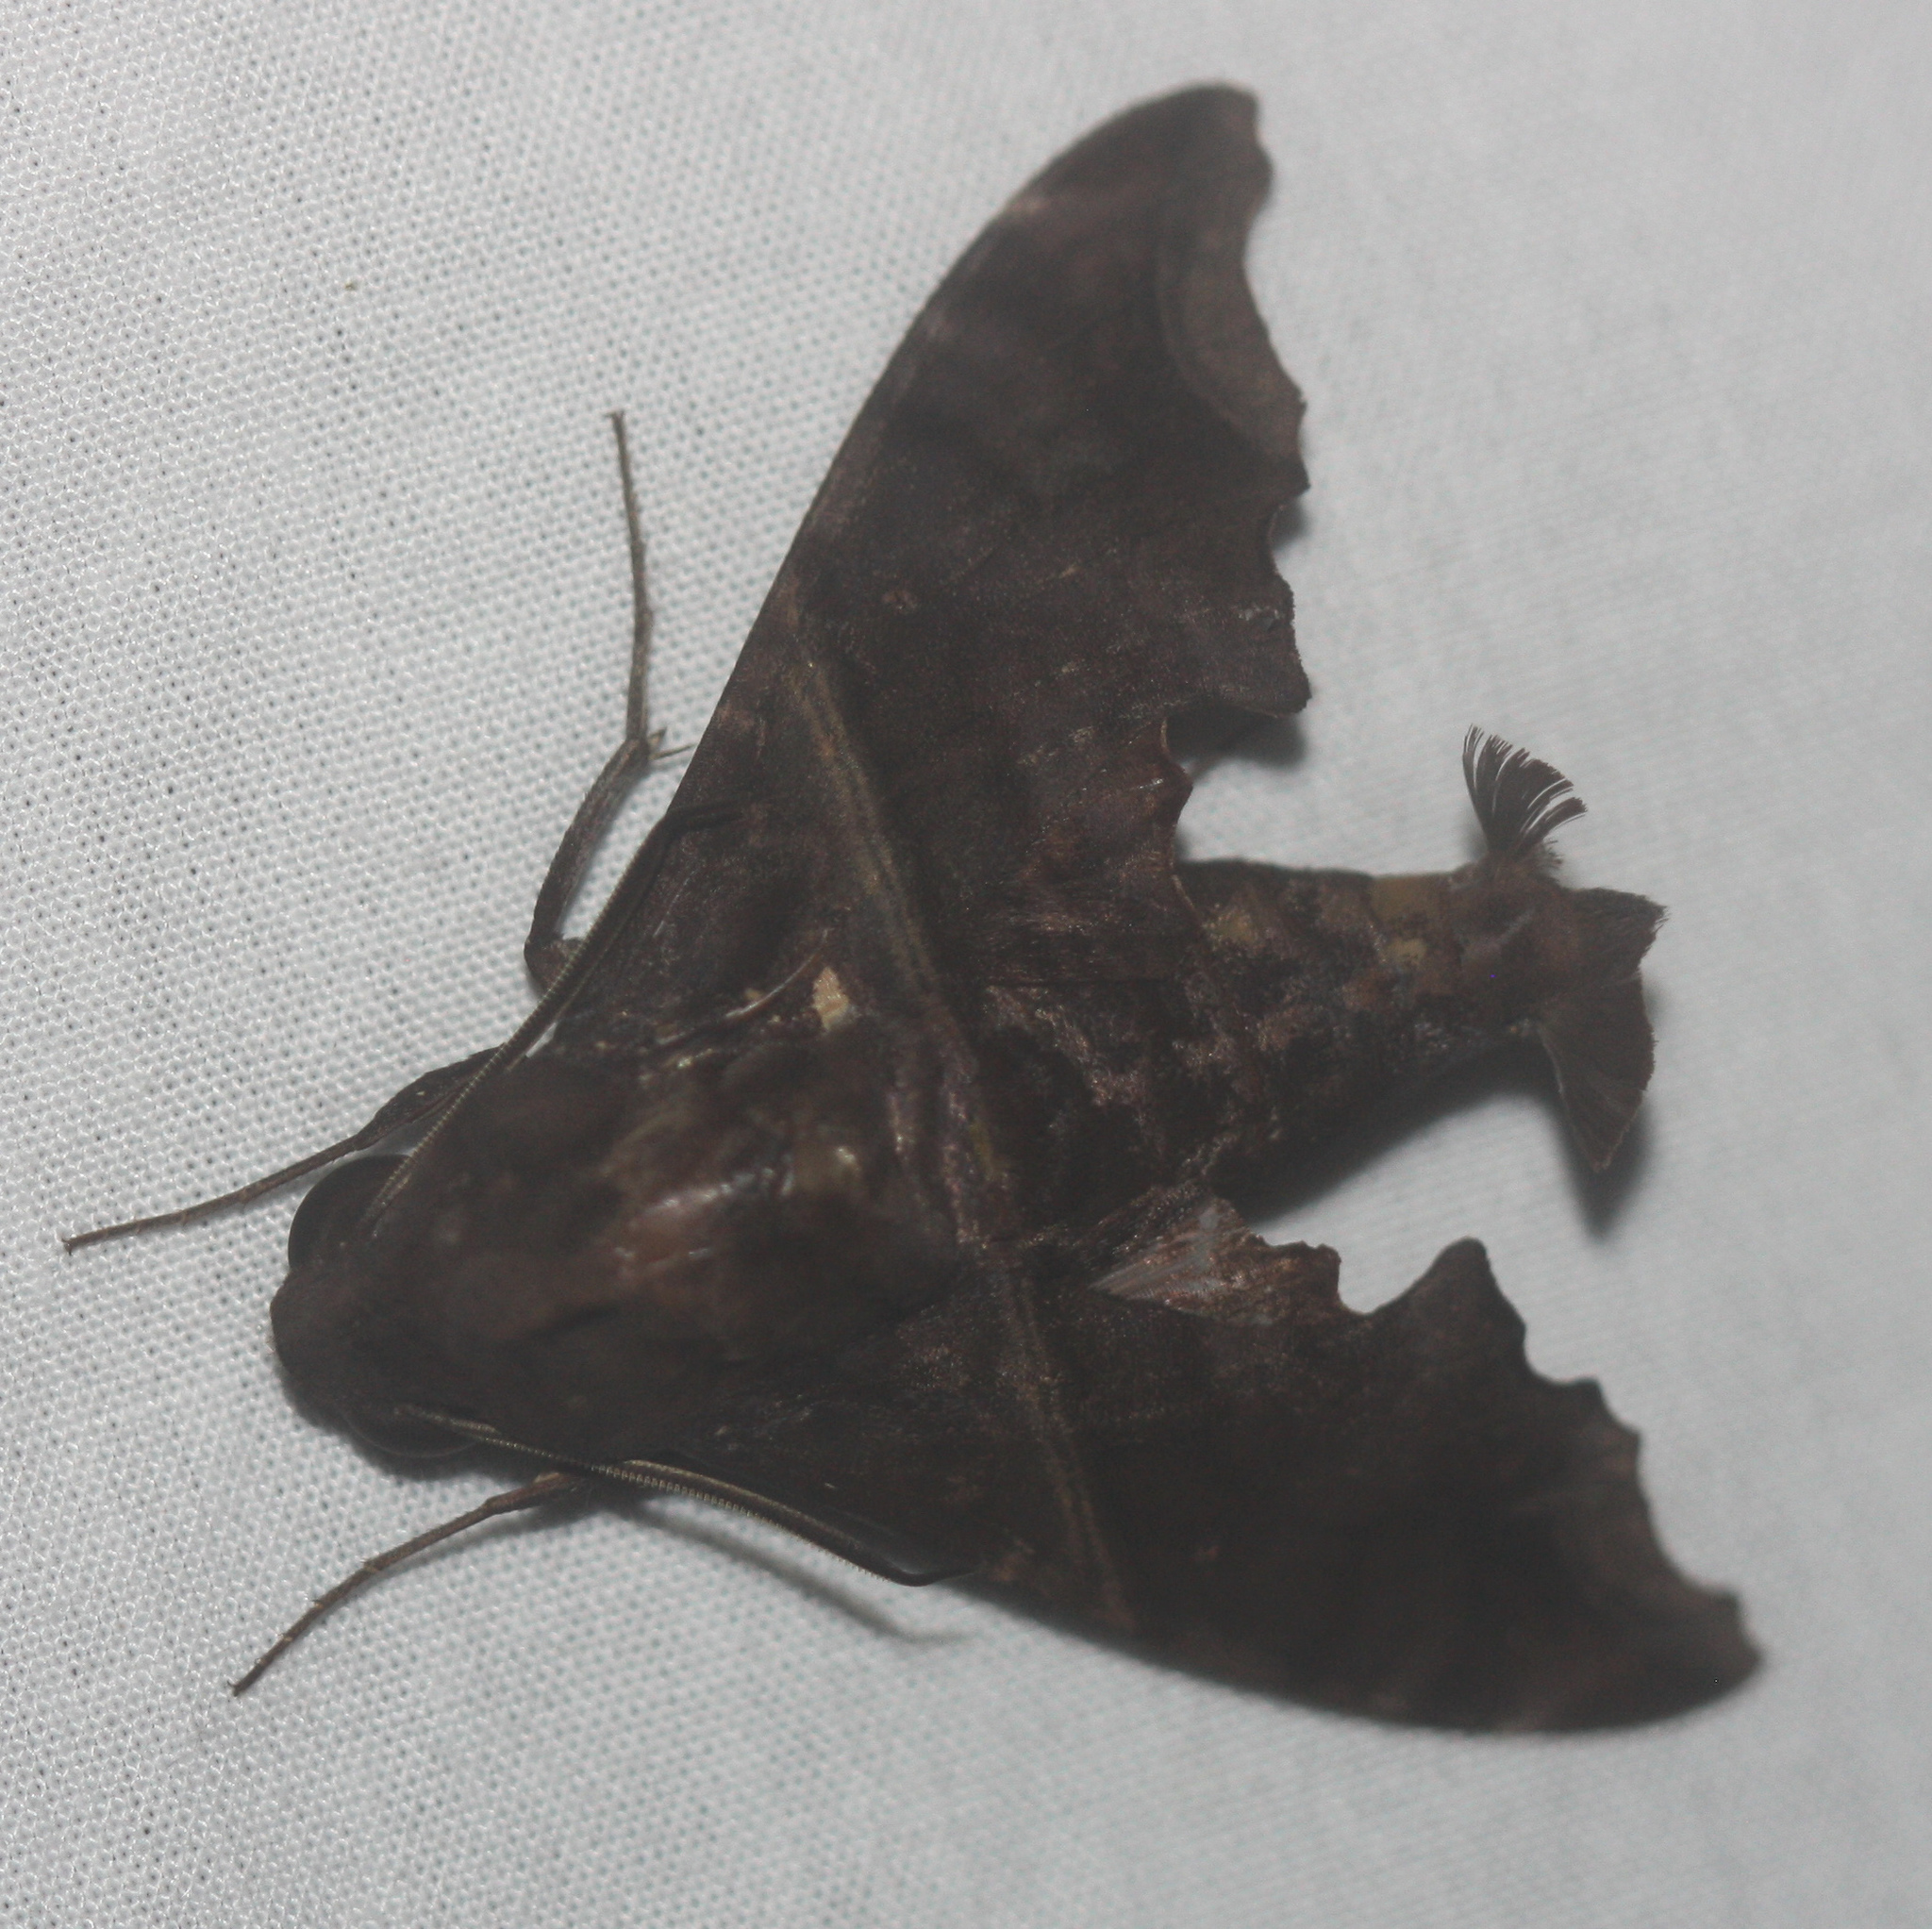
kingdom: Animalia
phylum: Arthropoda
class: Insecta
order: Lepidoptera
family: Sphingidae
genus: Enyo
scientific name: Enyo ocypete
